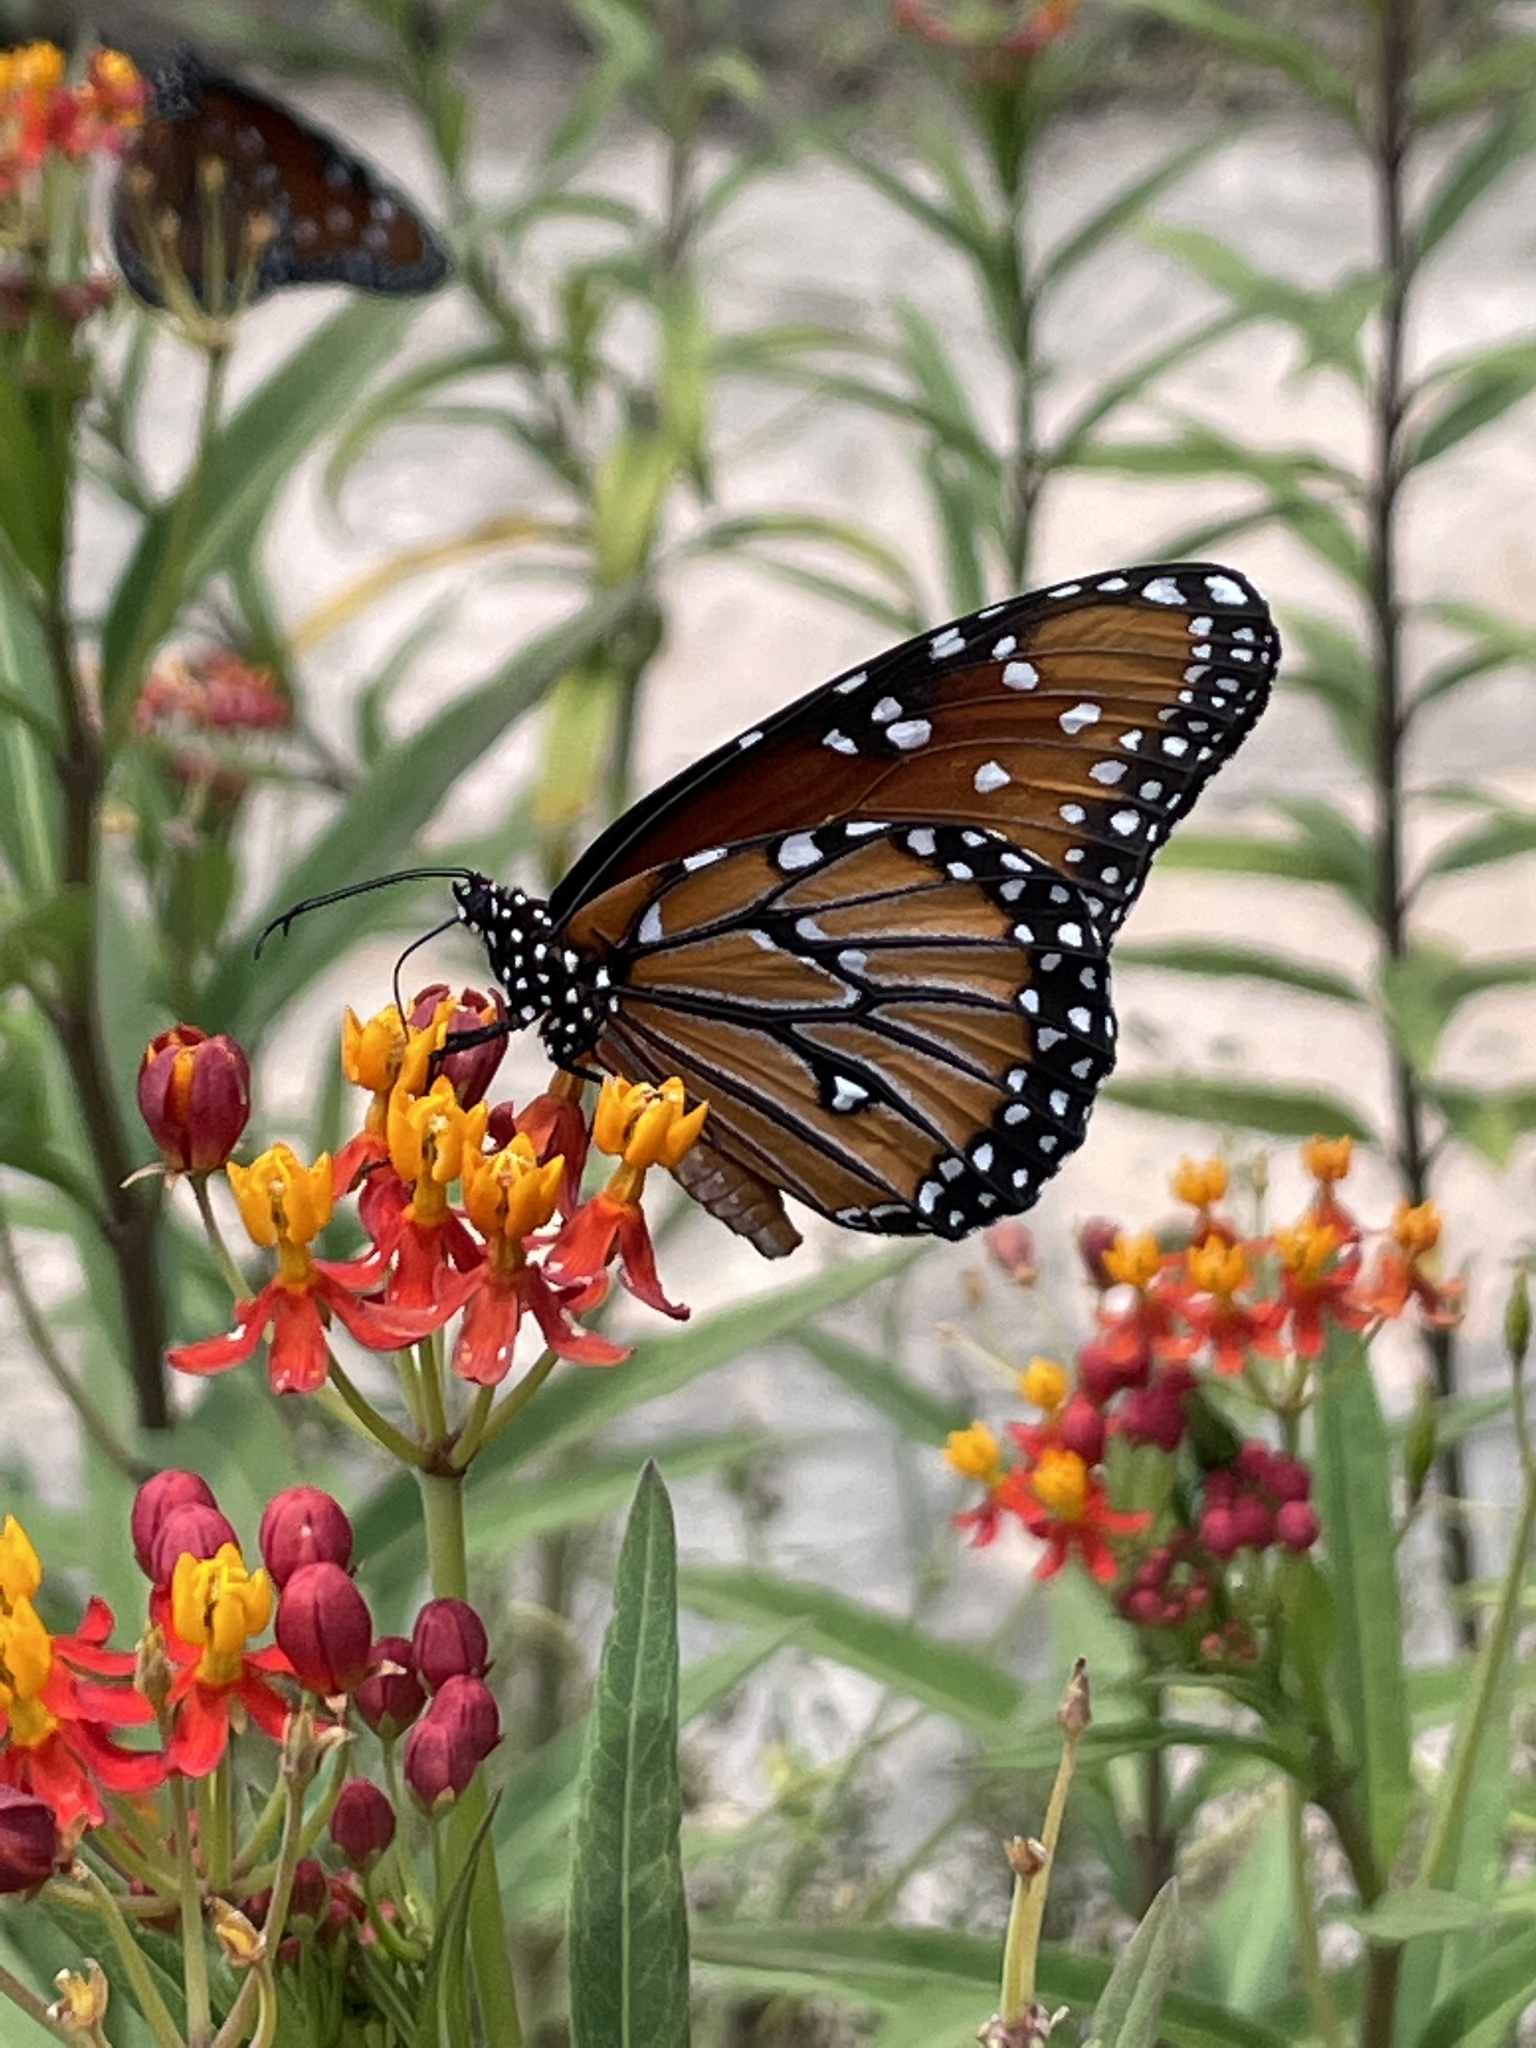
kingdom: Animalia
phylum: Arthropoda
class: Insecta
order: Lepidoptera
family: Nymphalidae
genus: Danaus
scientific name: Danaus gilippus
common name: Queen
